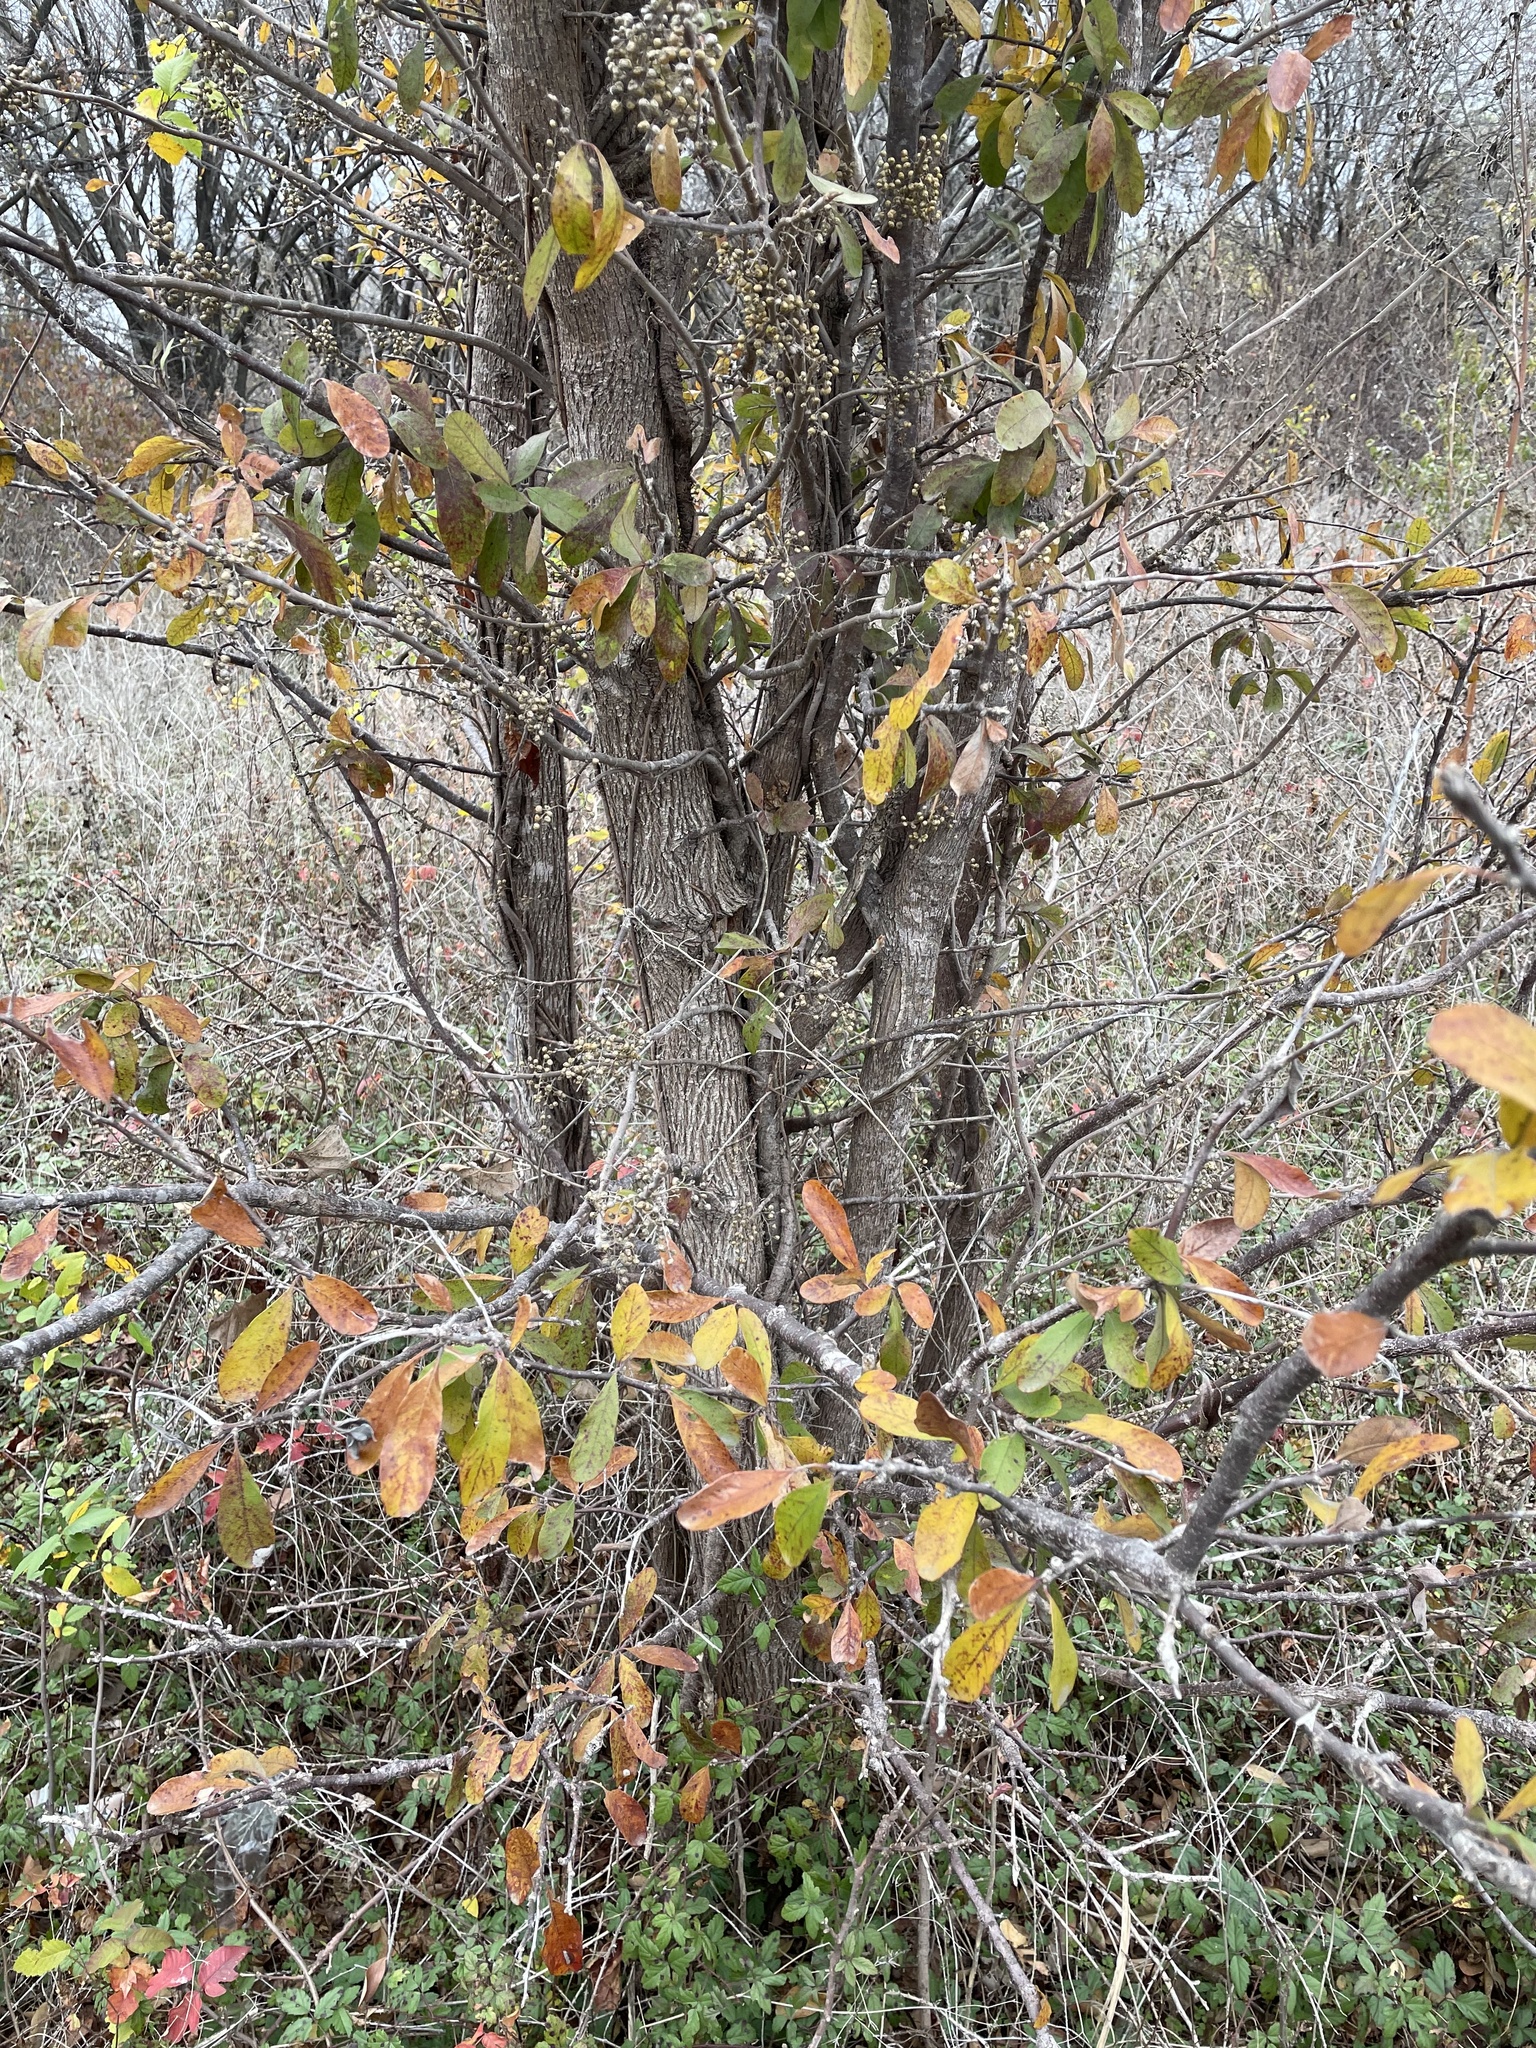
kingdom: Plantae
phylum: Tracheophyta
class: Magnoliopsida
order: Ericales
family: Sapotaceae
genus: Sideroxylon
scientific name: Sideroxylon lanuginosum
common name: Chittamwood
